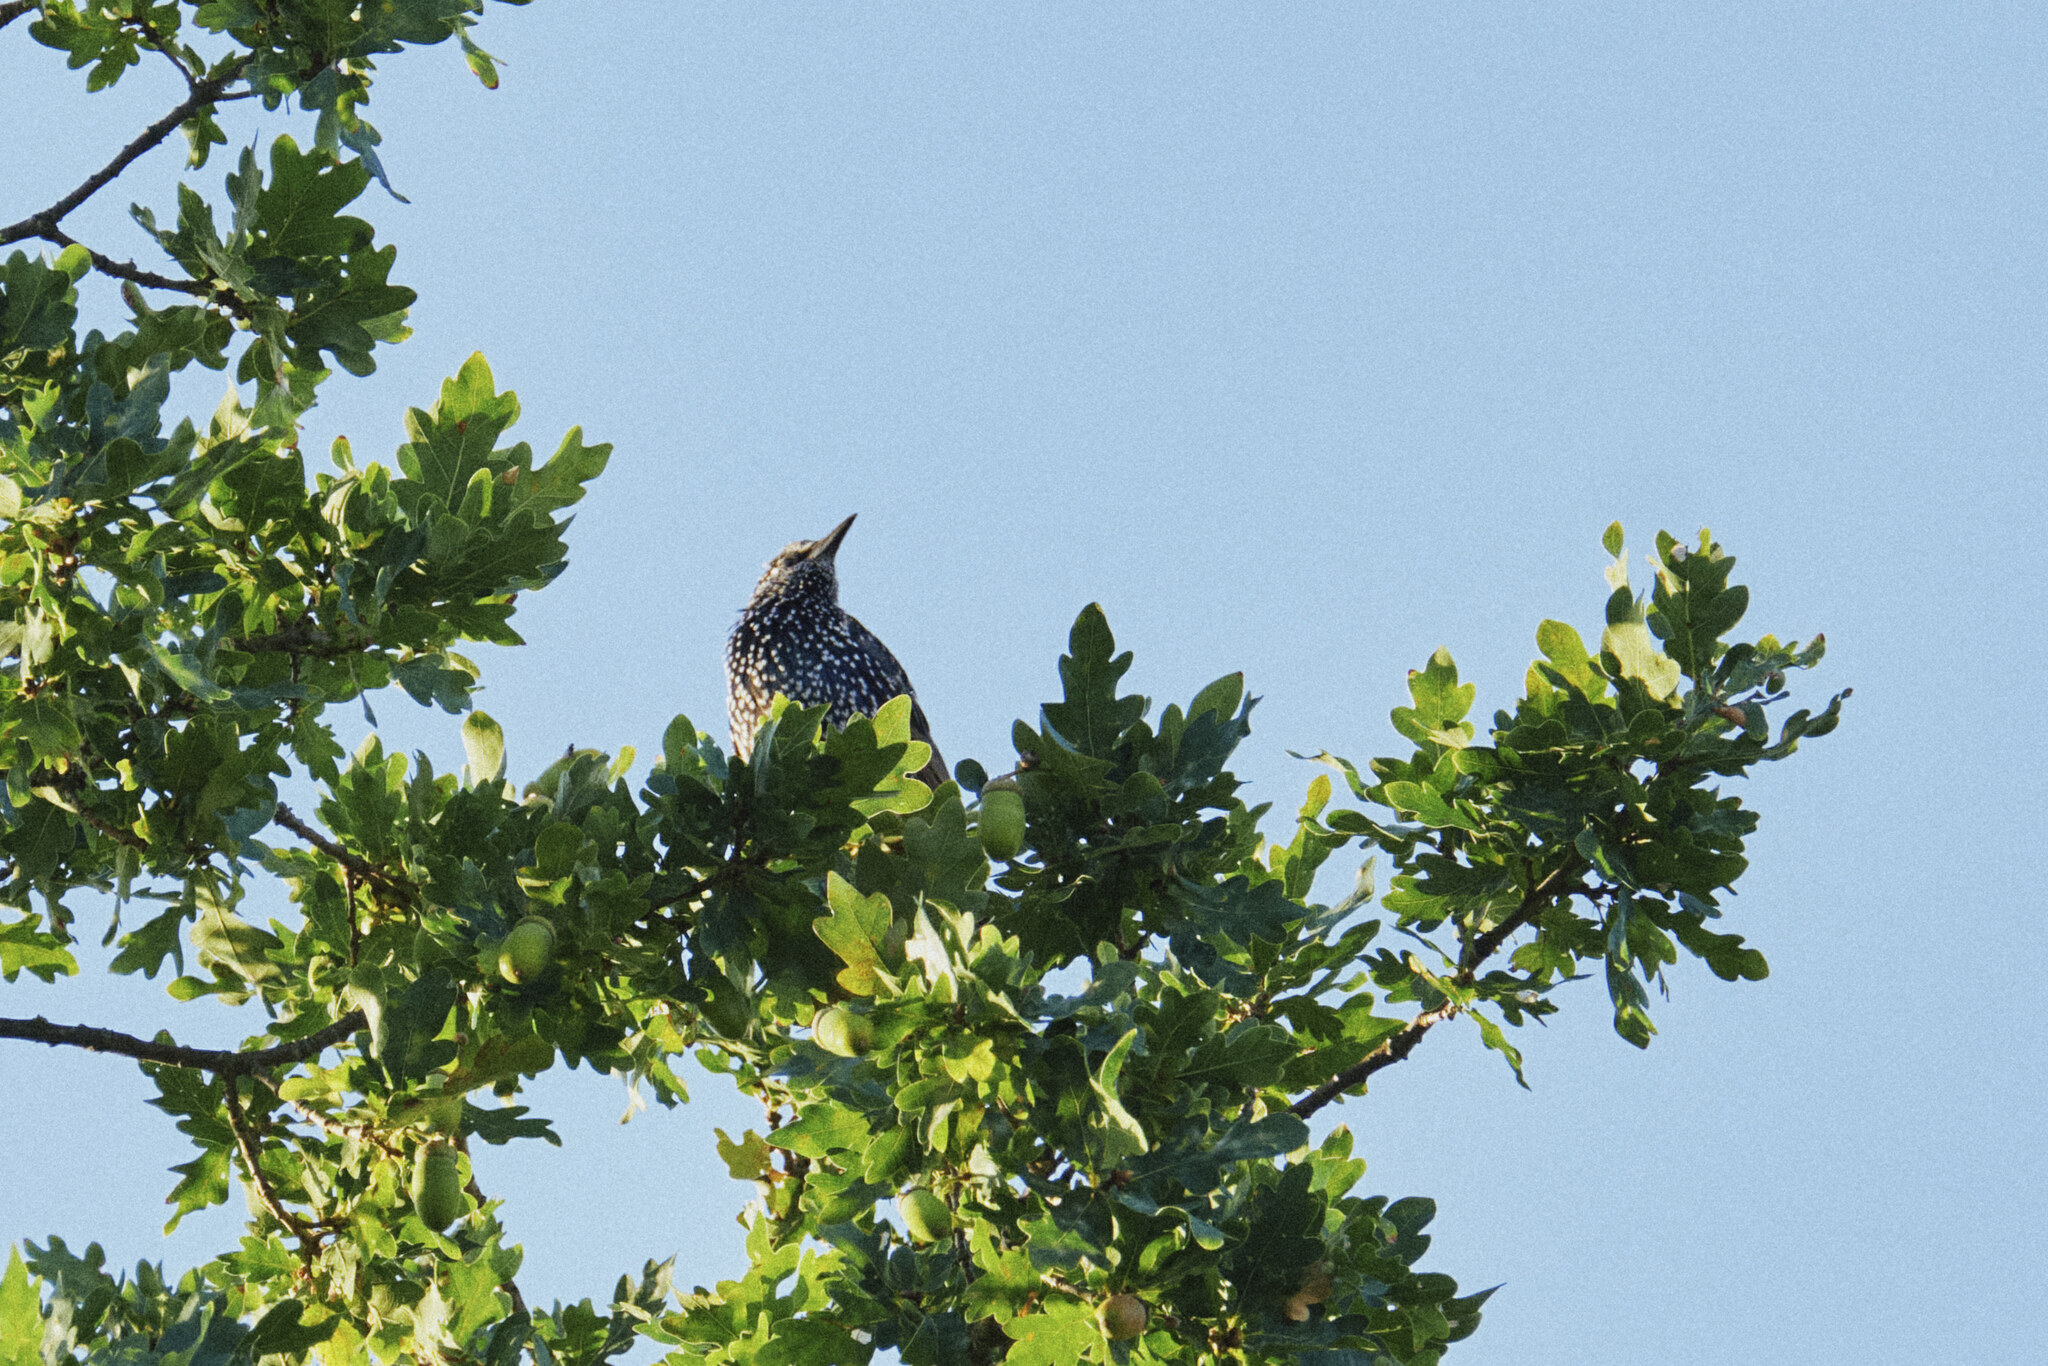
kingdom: Animalia
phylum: Chordata
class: Aves
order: Passeriformes
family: Sturnidae
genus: Sturnus
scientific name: Sturnus vulgaris
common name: Common starling
